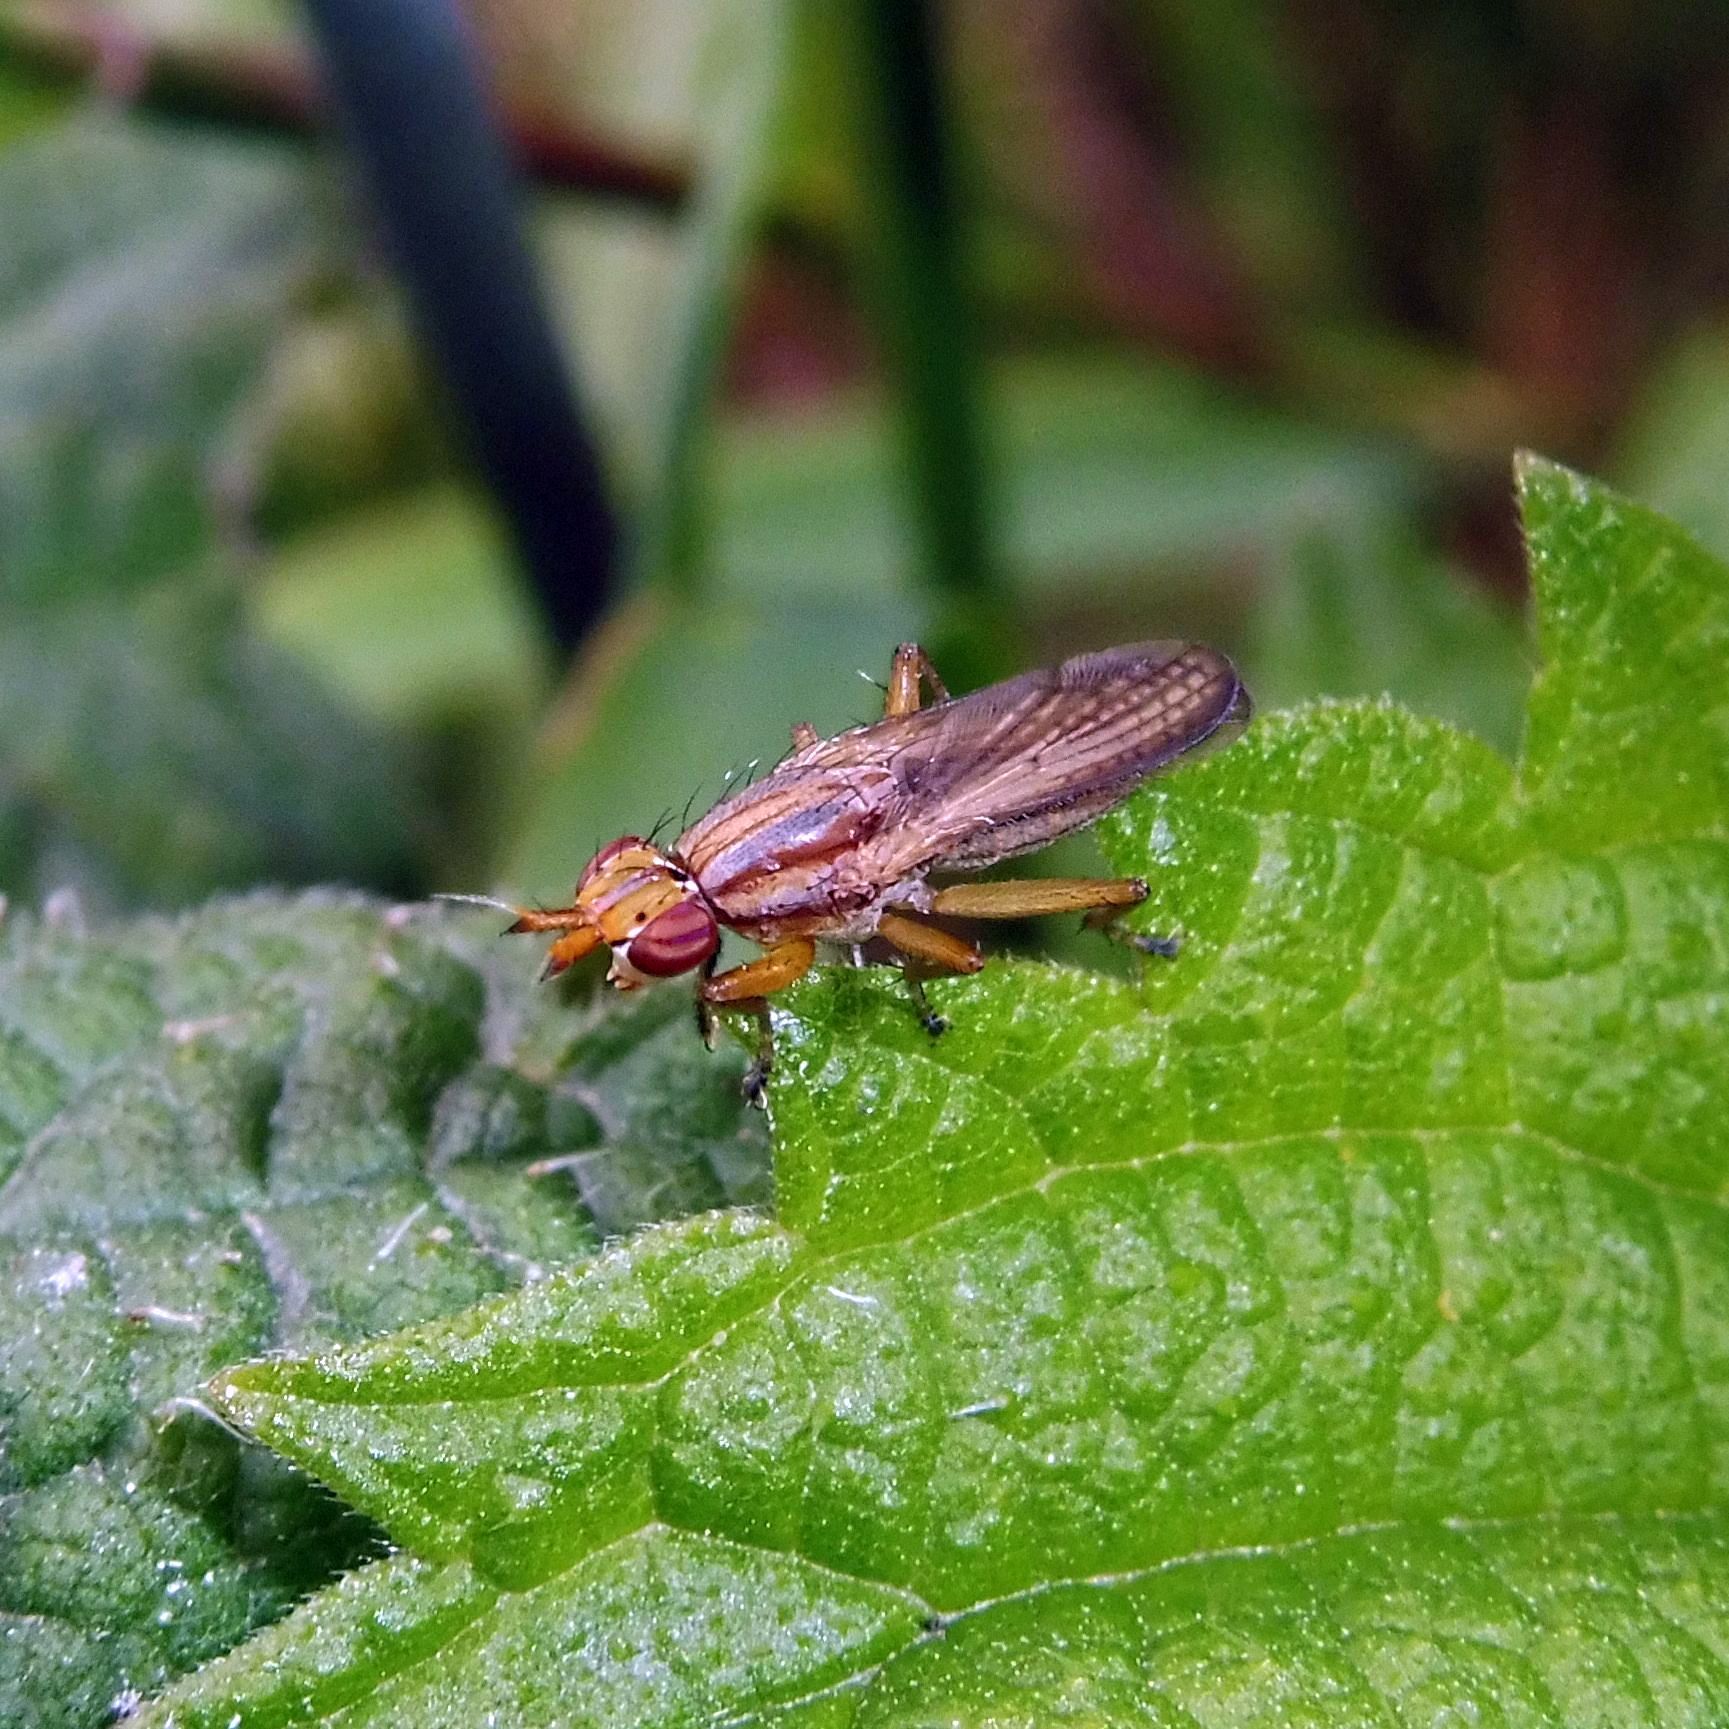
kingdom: Animalia
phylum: Arthropoda
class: Insecta
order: Diptera
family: Sciomyzidae
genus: Limnia
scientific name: Limnia unguicornis
